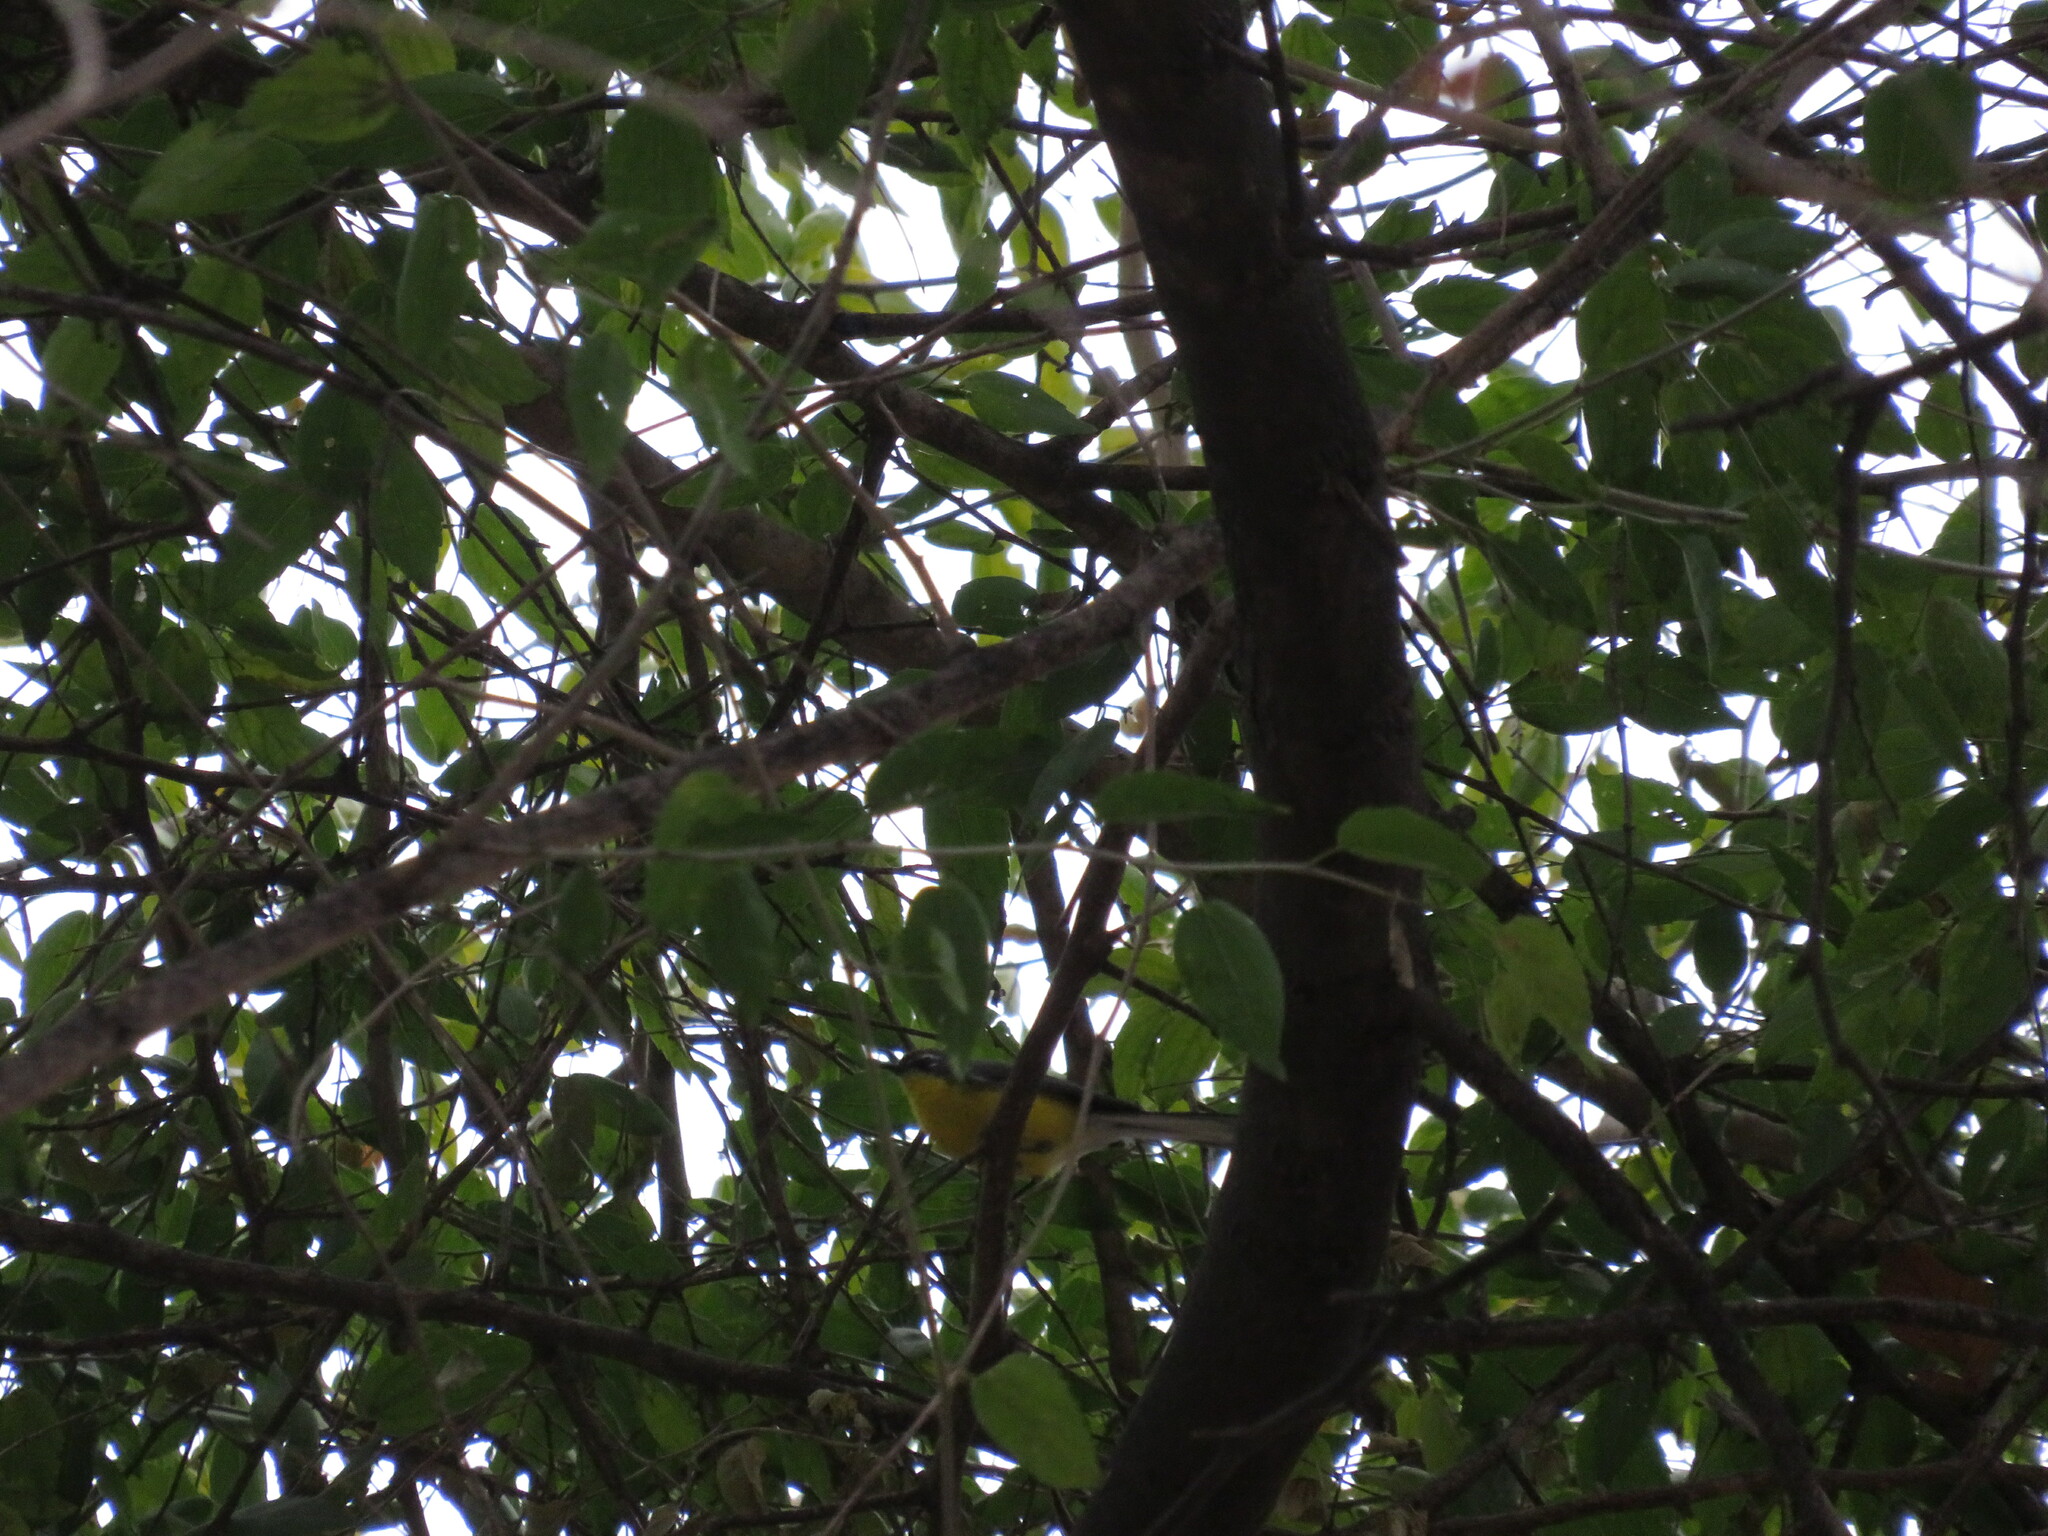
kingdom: Animalia
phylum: Chordata
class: Aves
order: Passeriformes
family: Parulidae
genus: Myioborus
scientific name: Myioborus brunniceps
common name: Brown-capped whitestart
